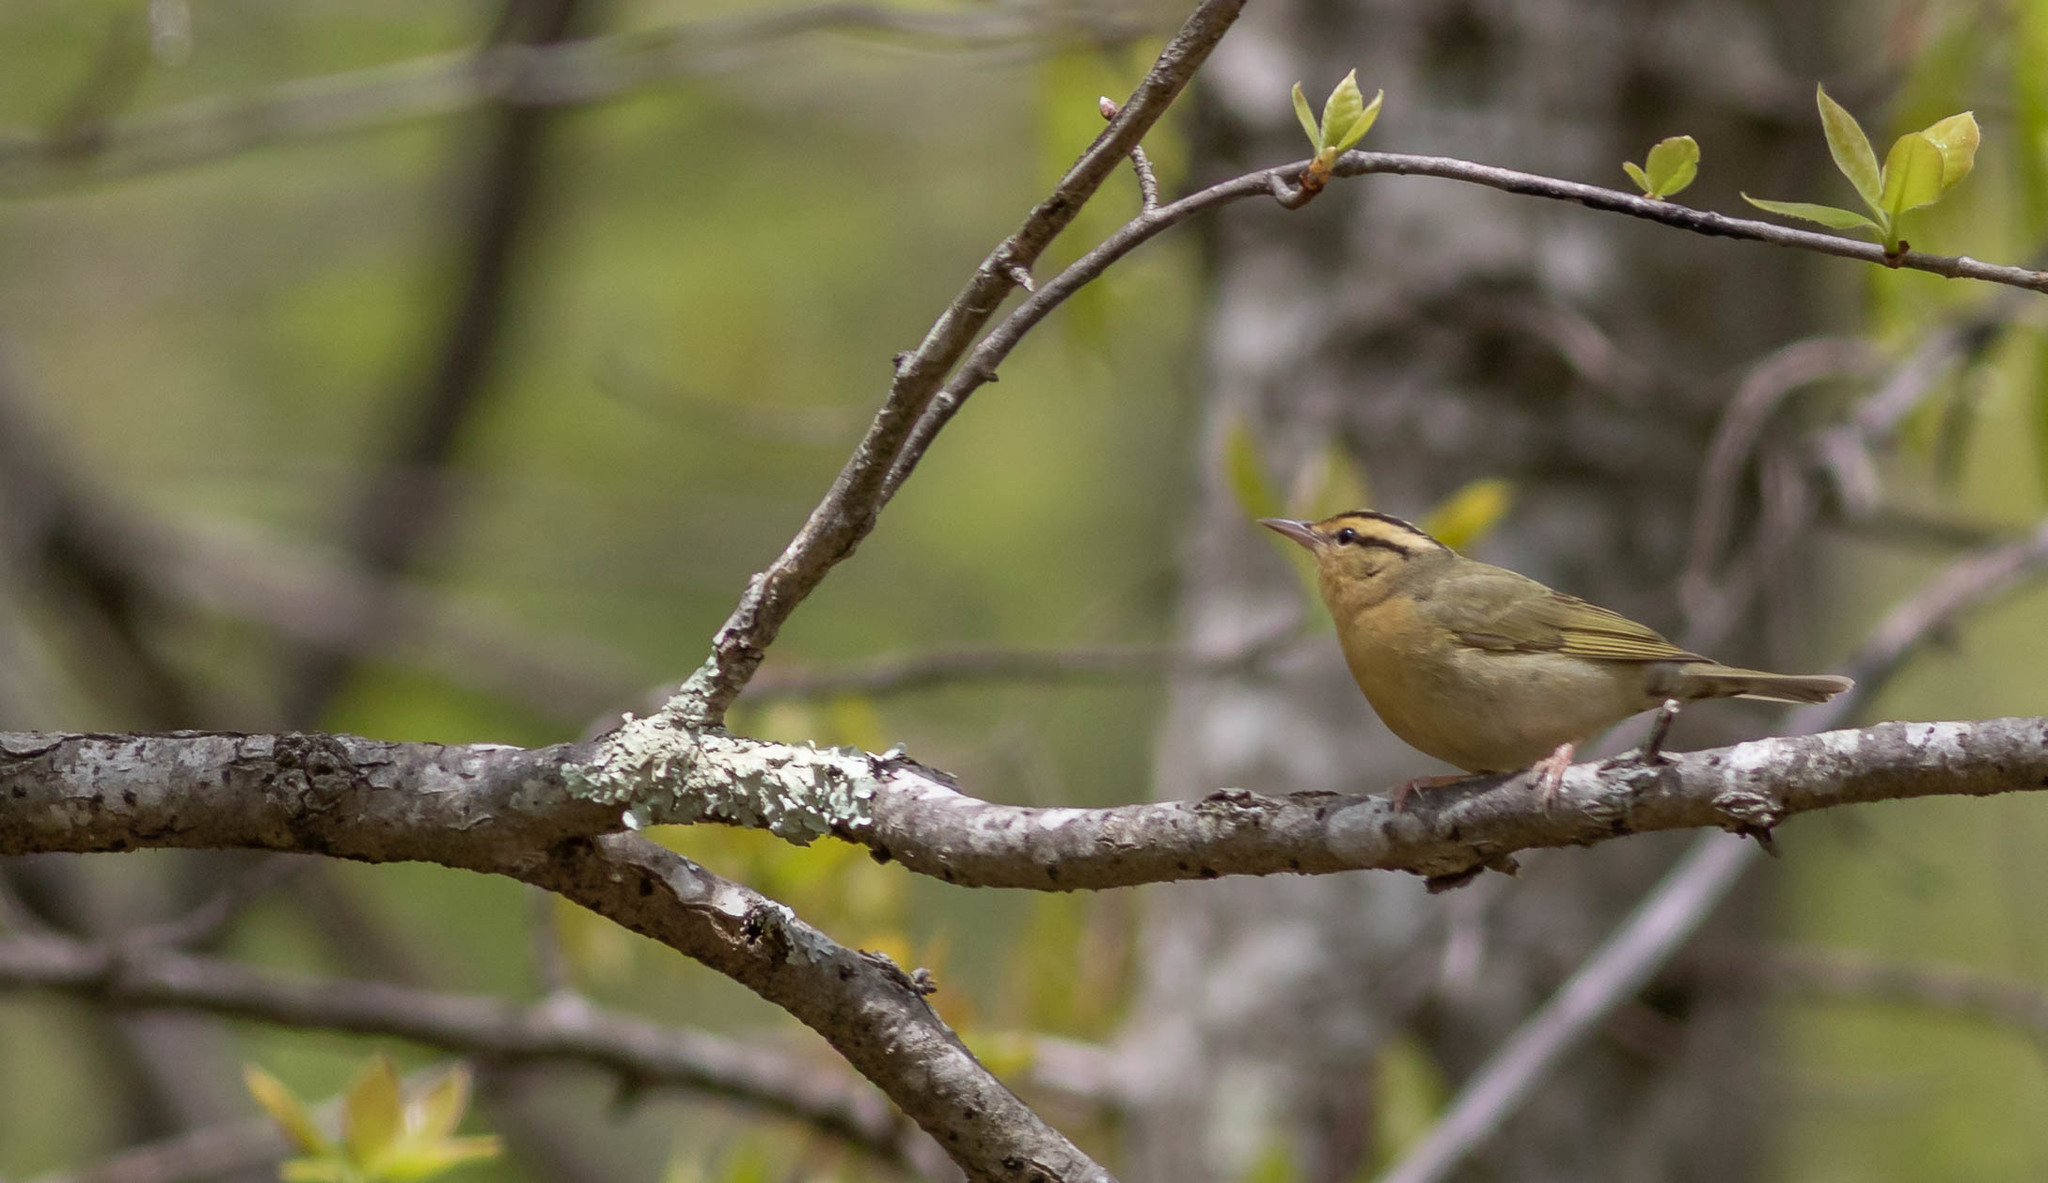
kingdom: Animalia
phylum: Chordata
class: Aves
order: Passeriformes
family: Parulidae
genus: Helmitheros
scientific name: Helmitheros vermivorum
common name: Worm-eating warbler
